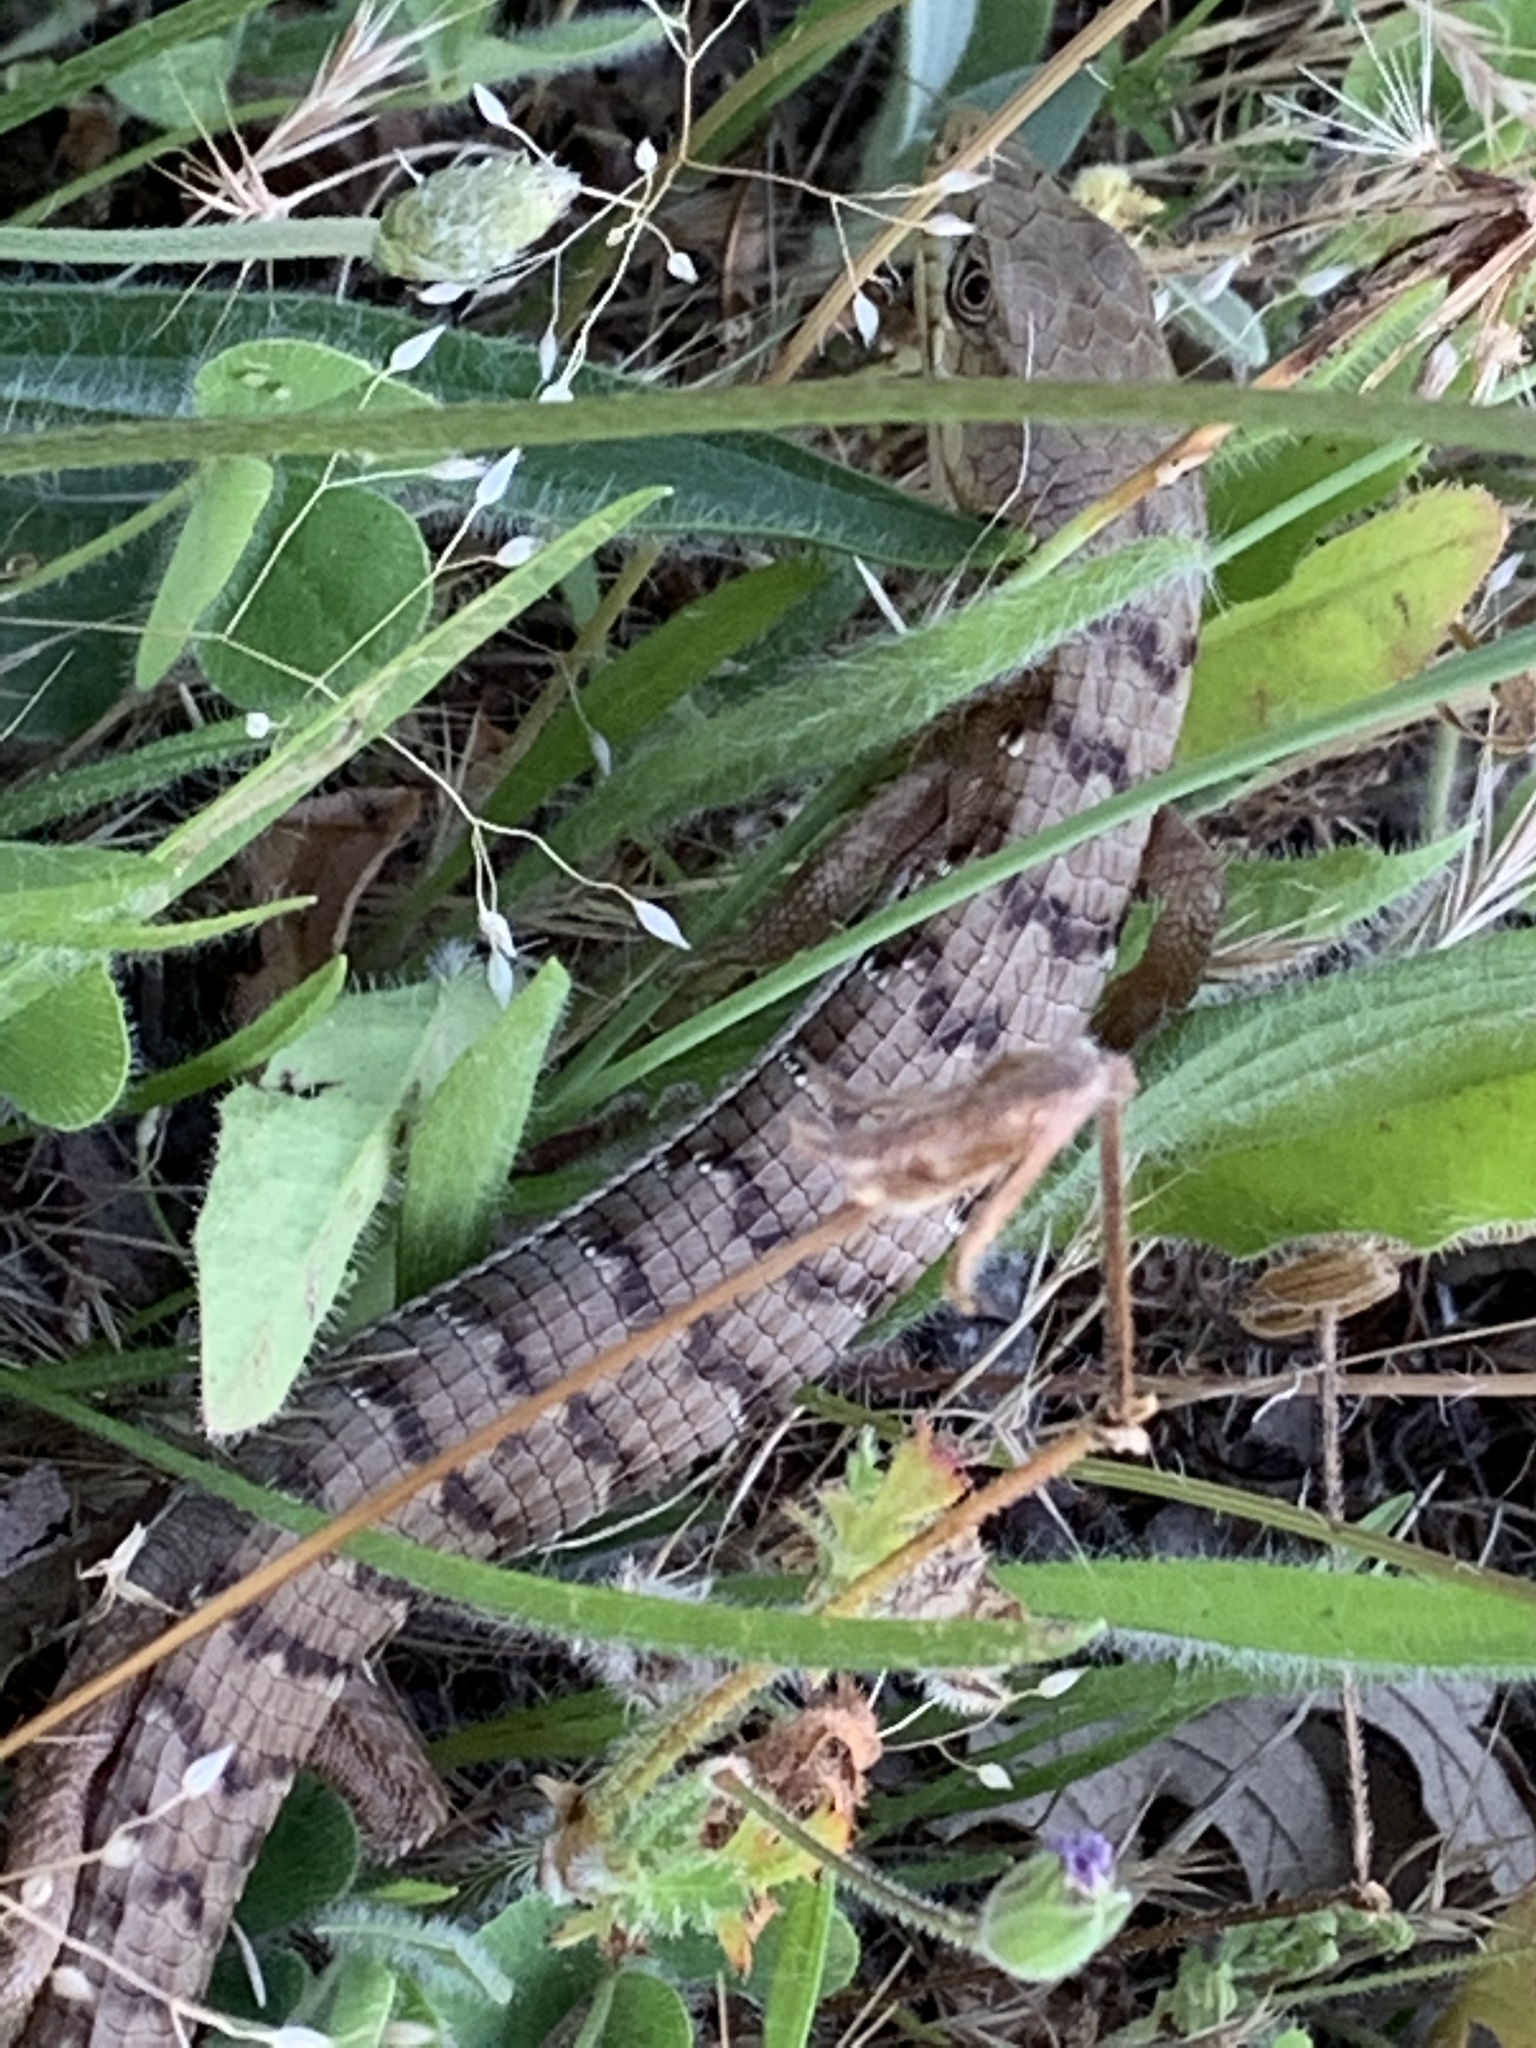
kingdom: Animalia
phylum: Chordata
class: Squamata
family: Anguidae
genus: Elgaria
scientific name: Elgaria multicarinata
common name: Southern alligator lizard
